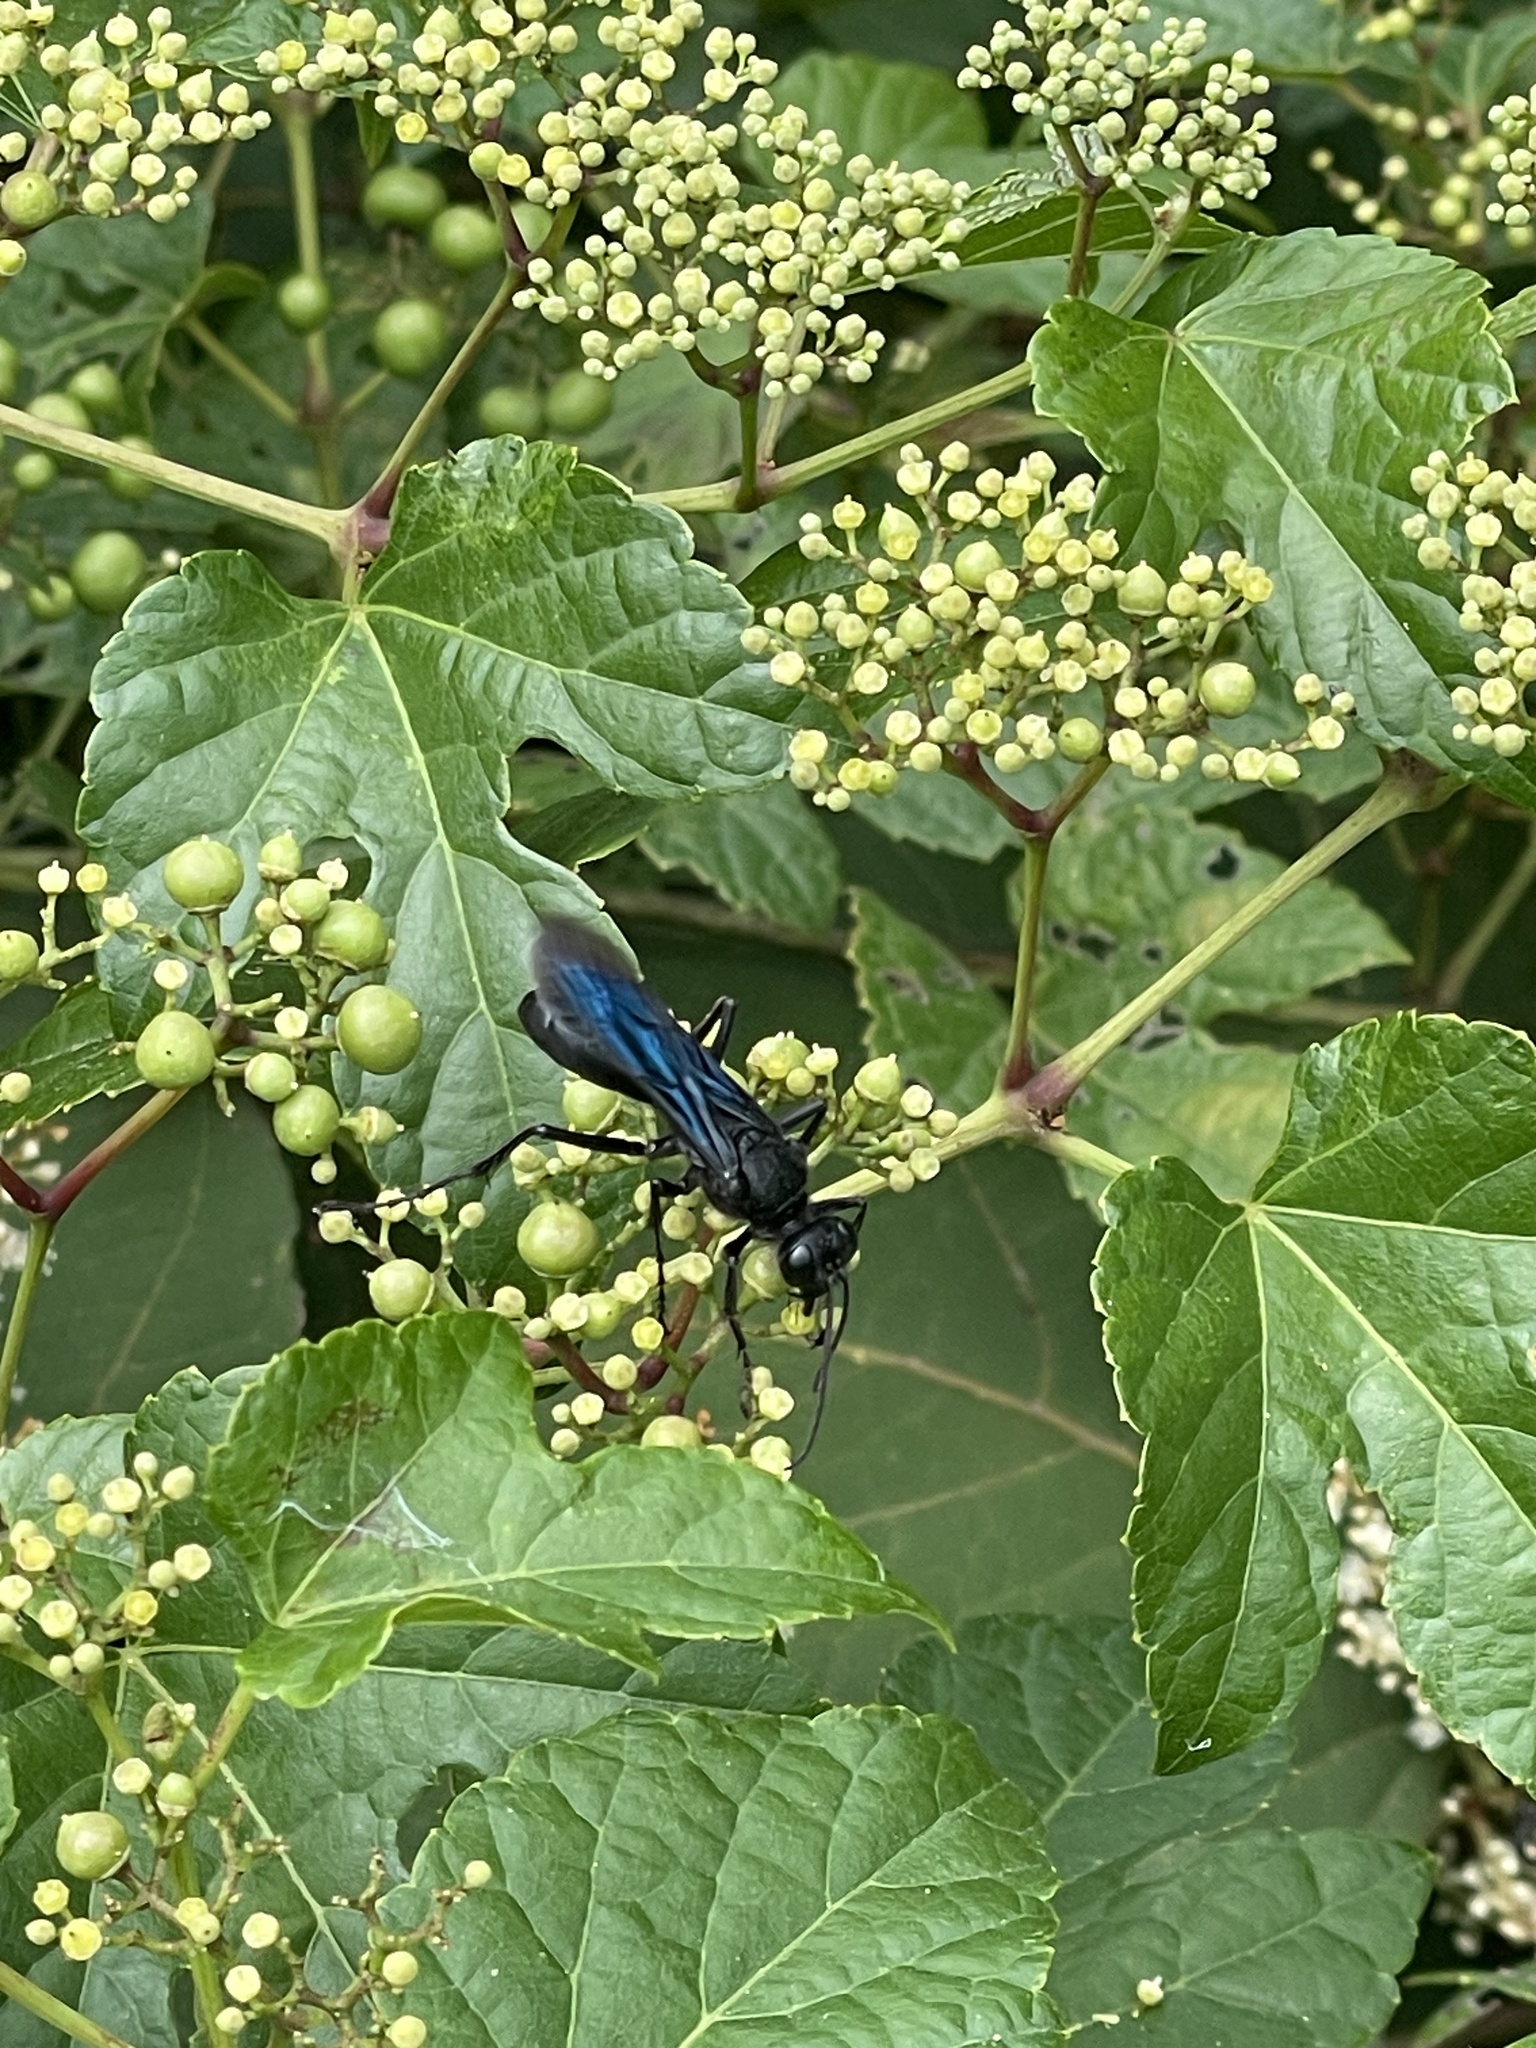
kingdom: Animalia
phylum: Arthropoda
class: Insecta
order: Hymenoptera
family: Sphecidae
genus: Sphex
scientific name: Sphex pensylvanicus
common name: Great black digger wasp
